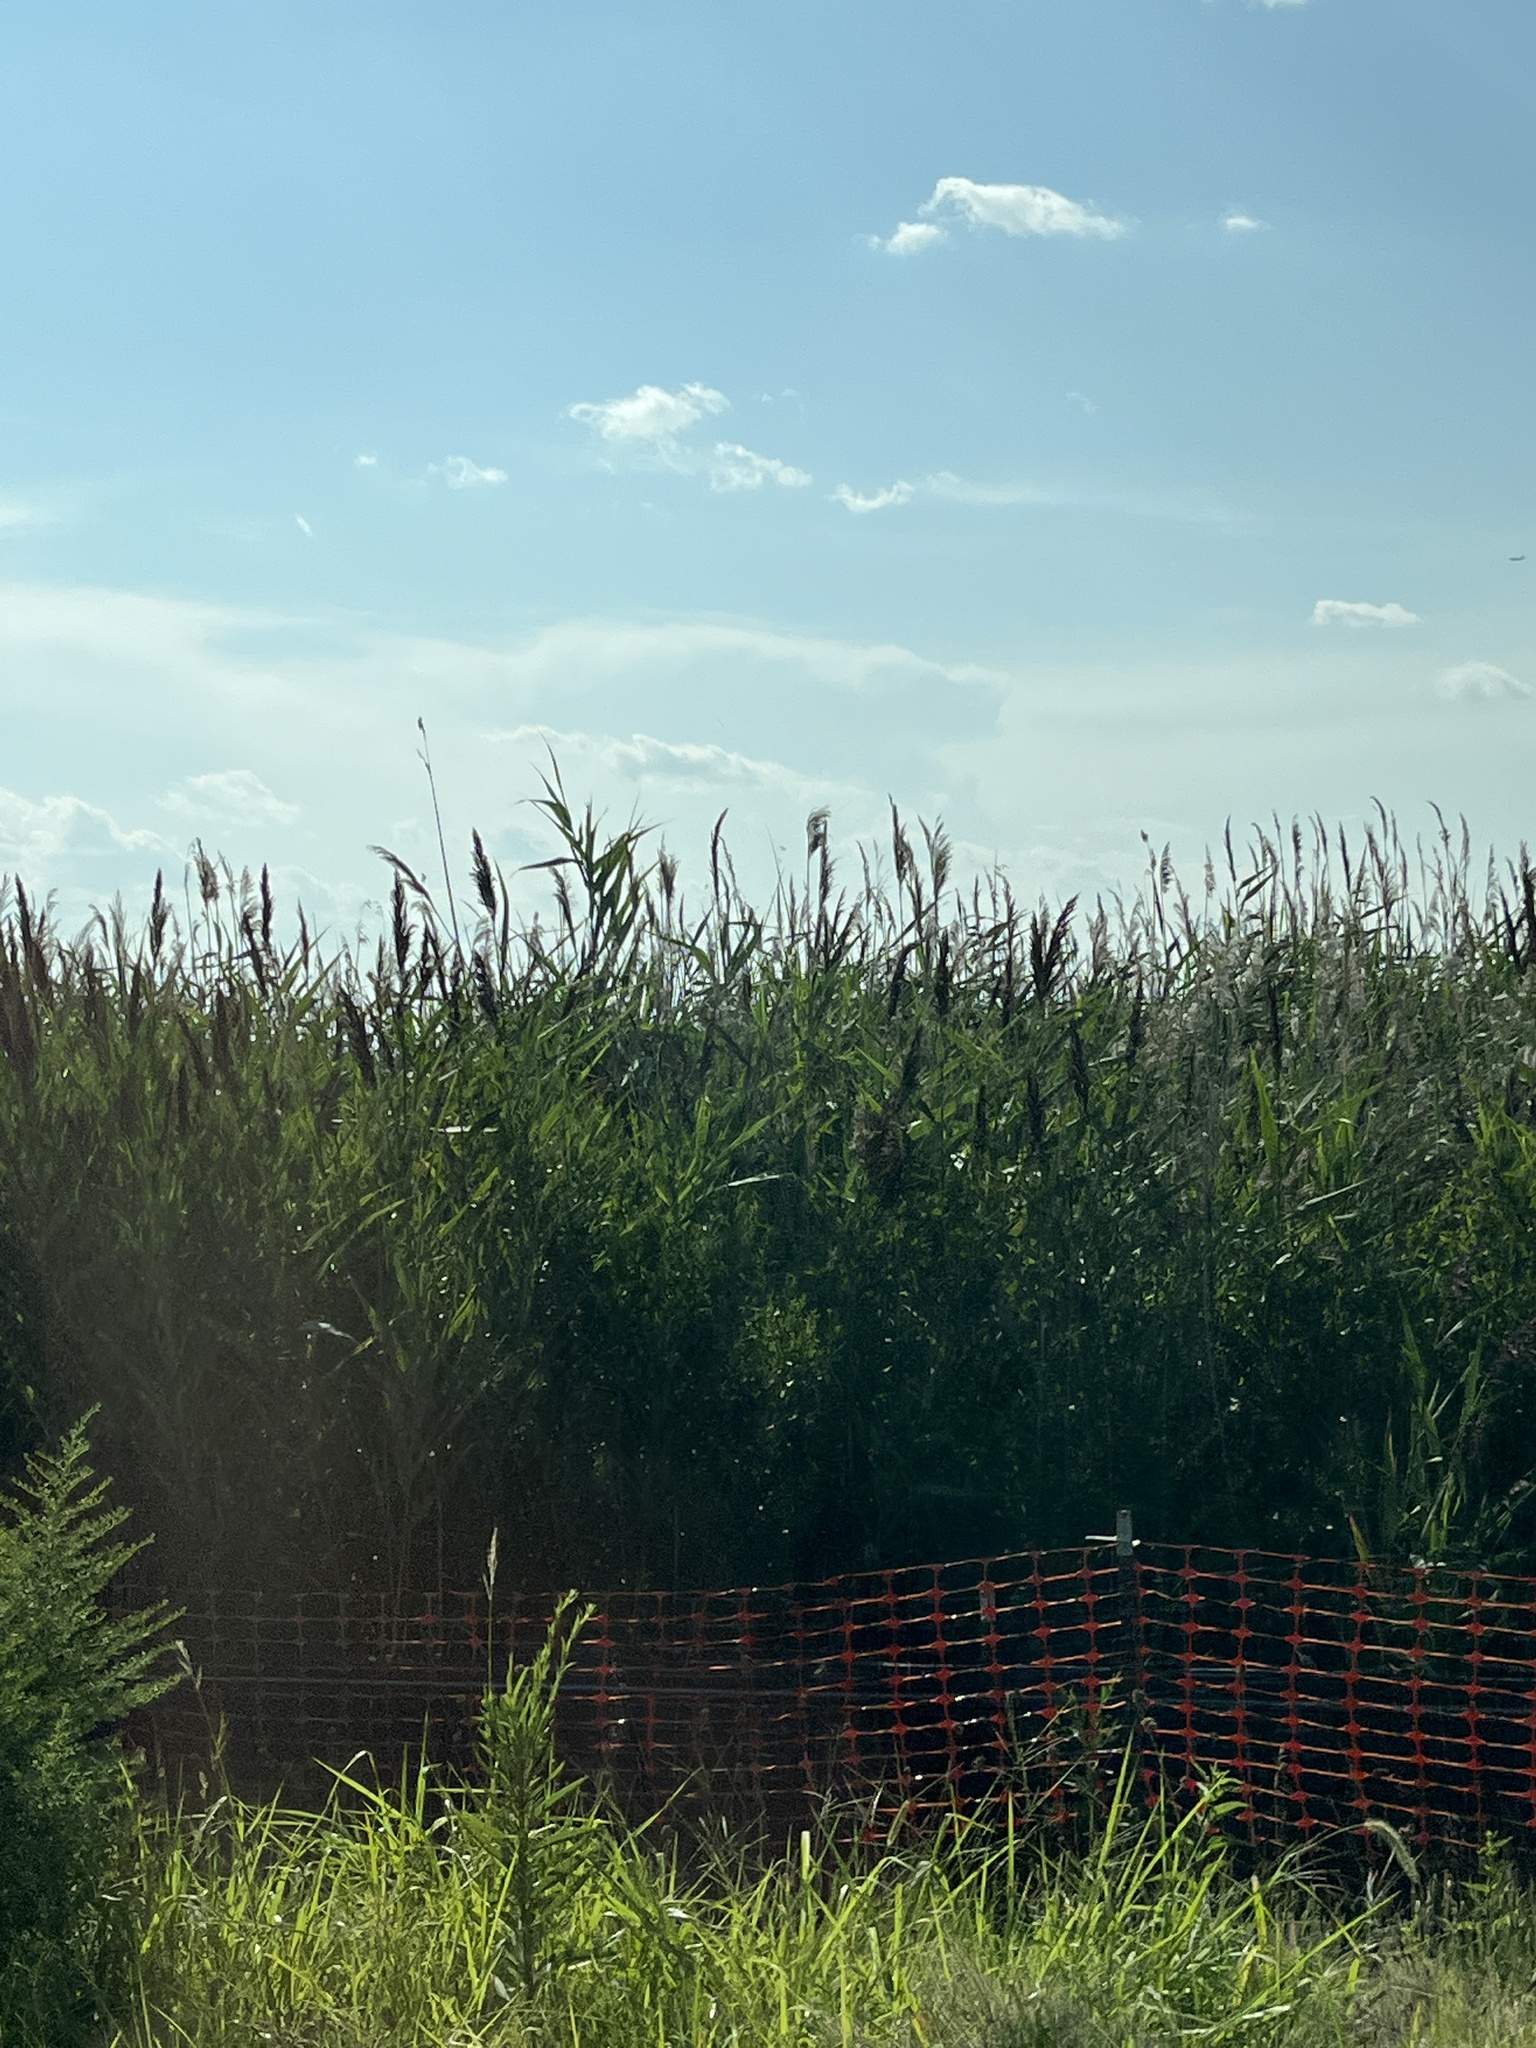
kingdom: Plantae
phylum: Tracheophyta
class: Liliopsida
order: Poales
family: Poaceae
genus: Phragmites
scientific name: Phragmites australis
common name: Common reed
